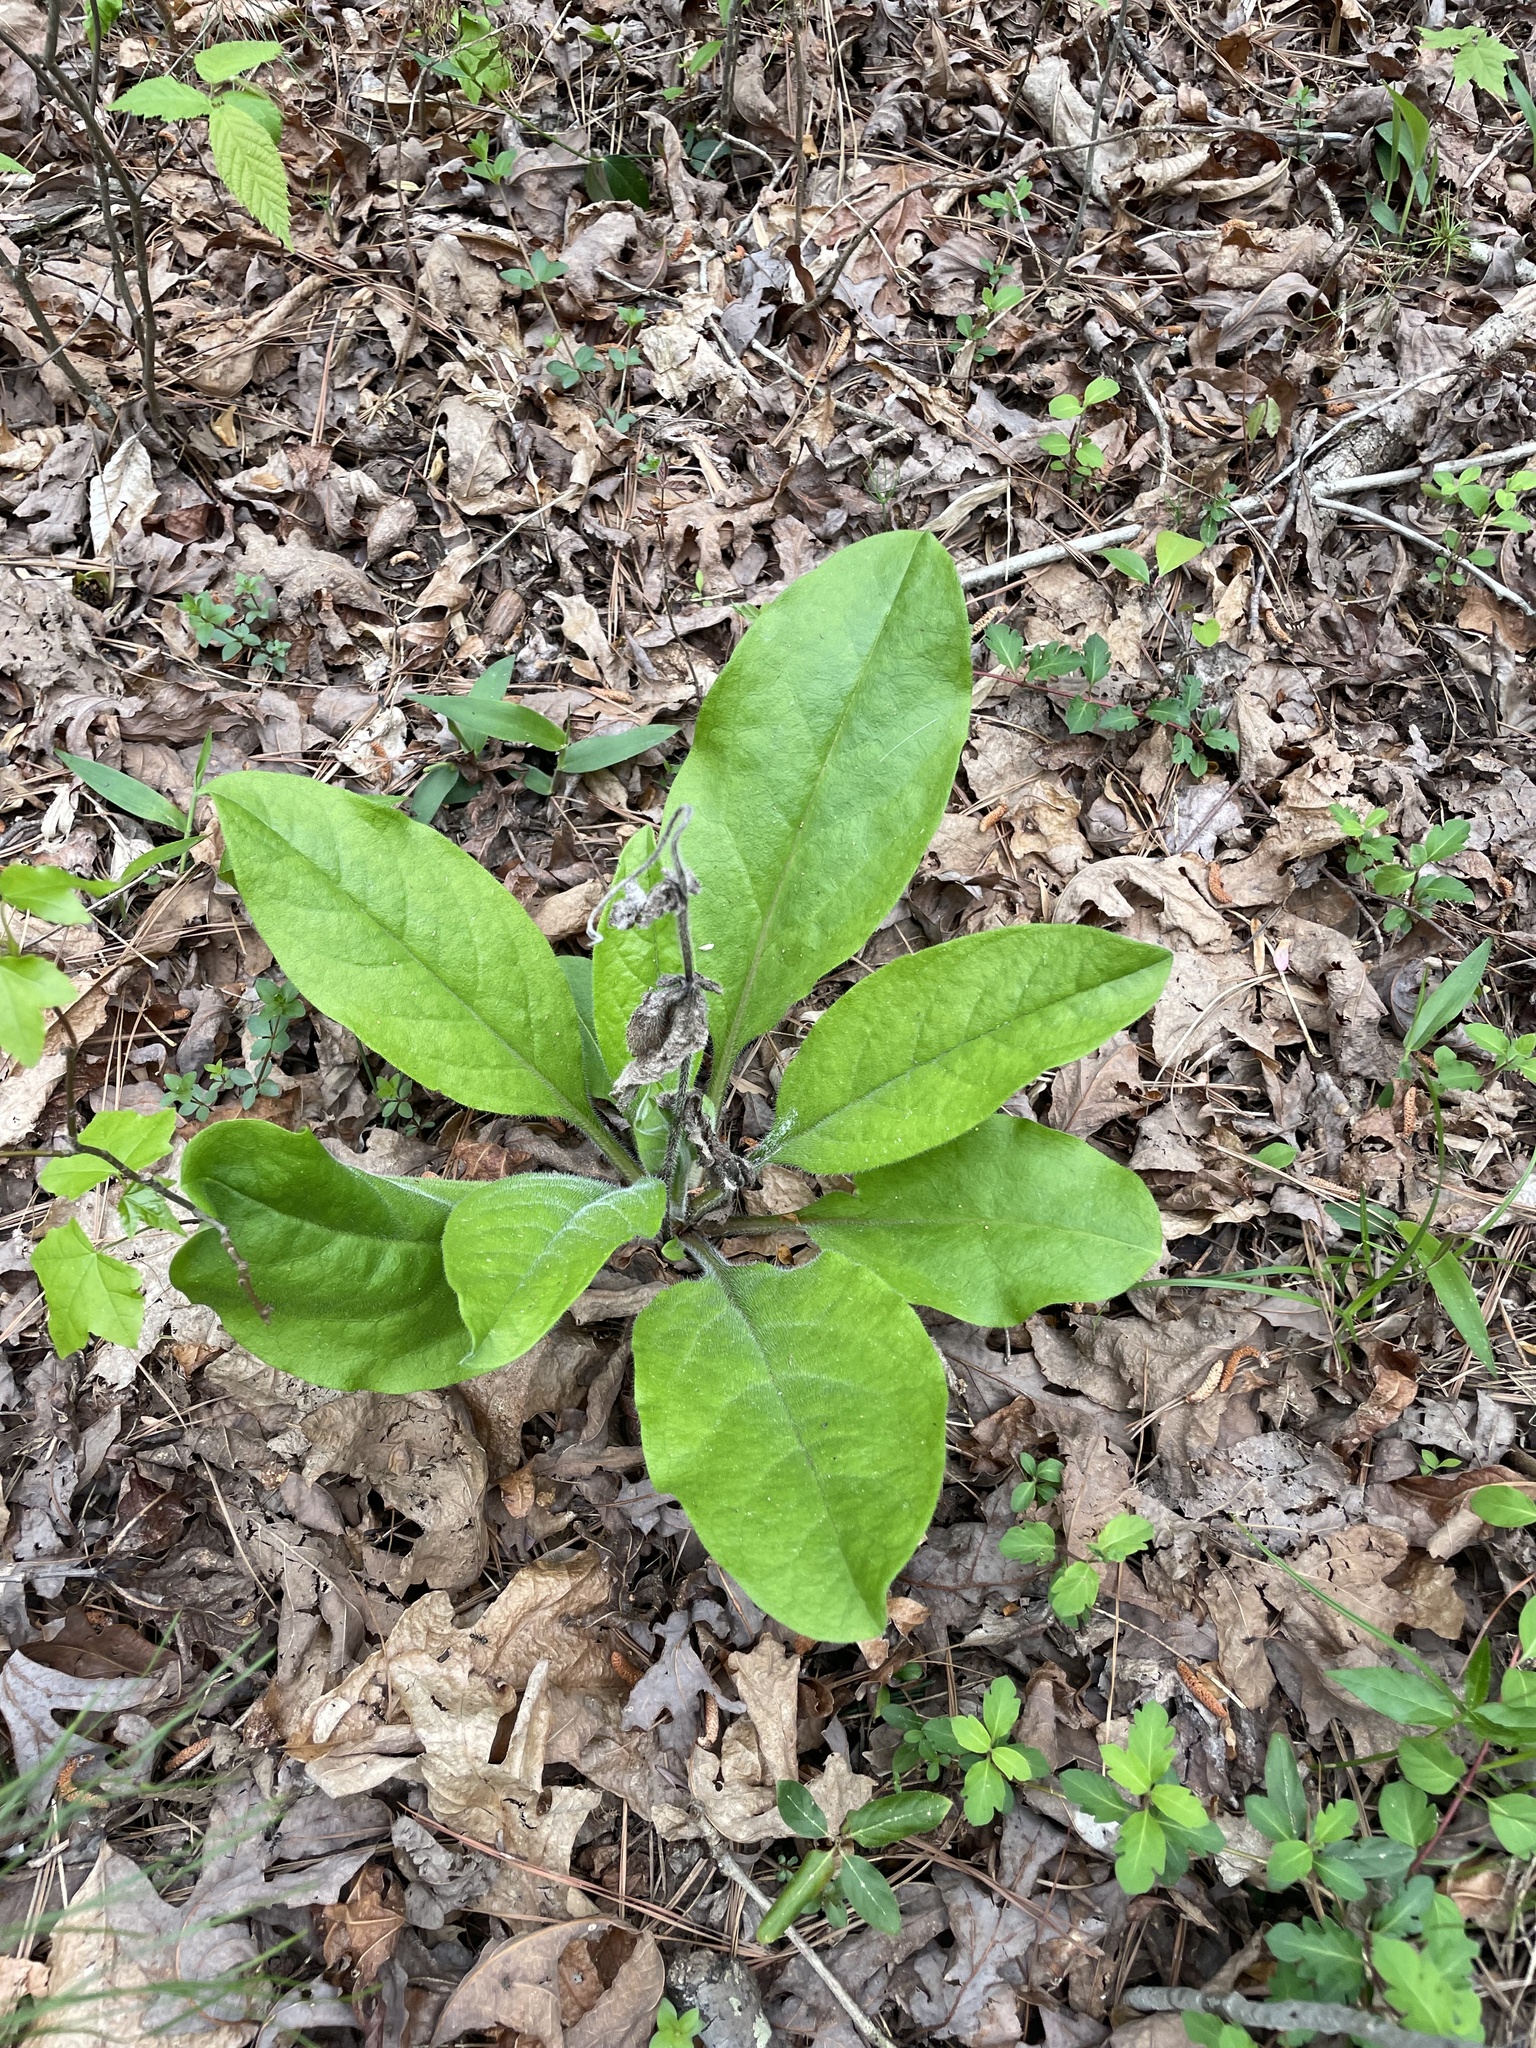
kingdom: Plantae
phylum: Tracheophyta
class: Magnoliopsida
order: Boraginales
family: Boraginaceae
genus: Andersonglossum
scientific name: Andersonglossum virginianum
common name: Wild comfrey
